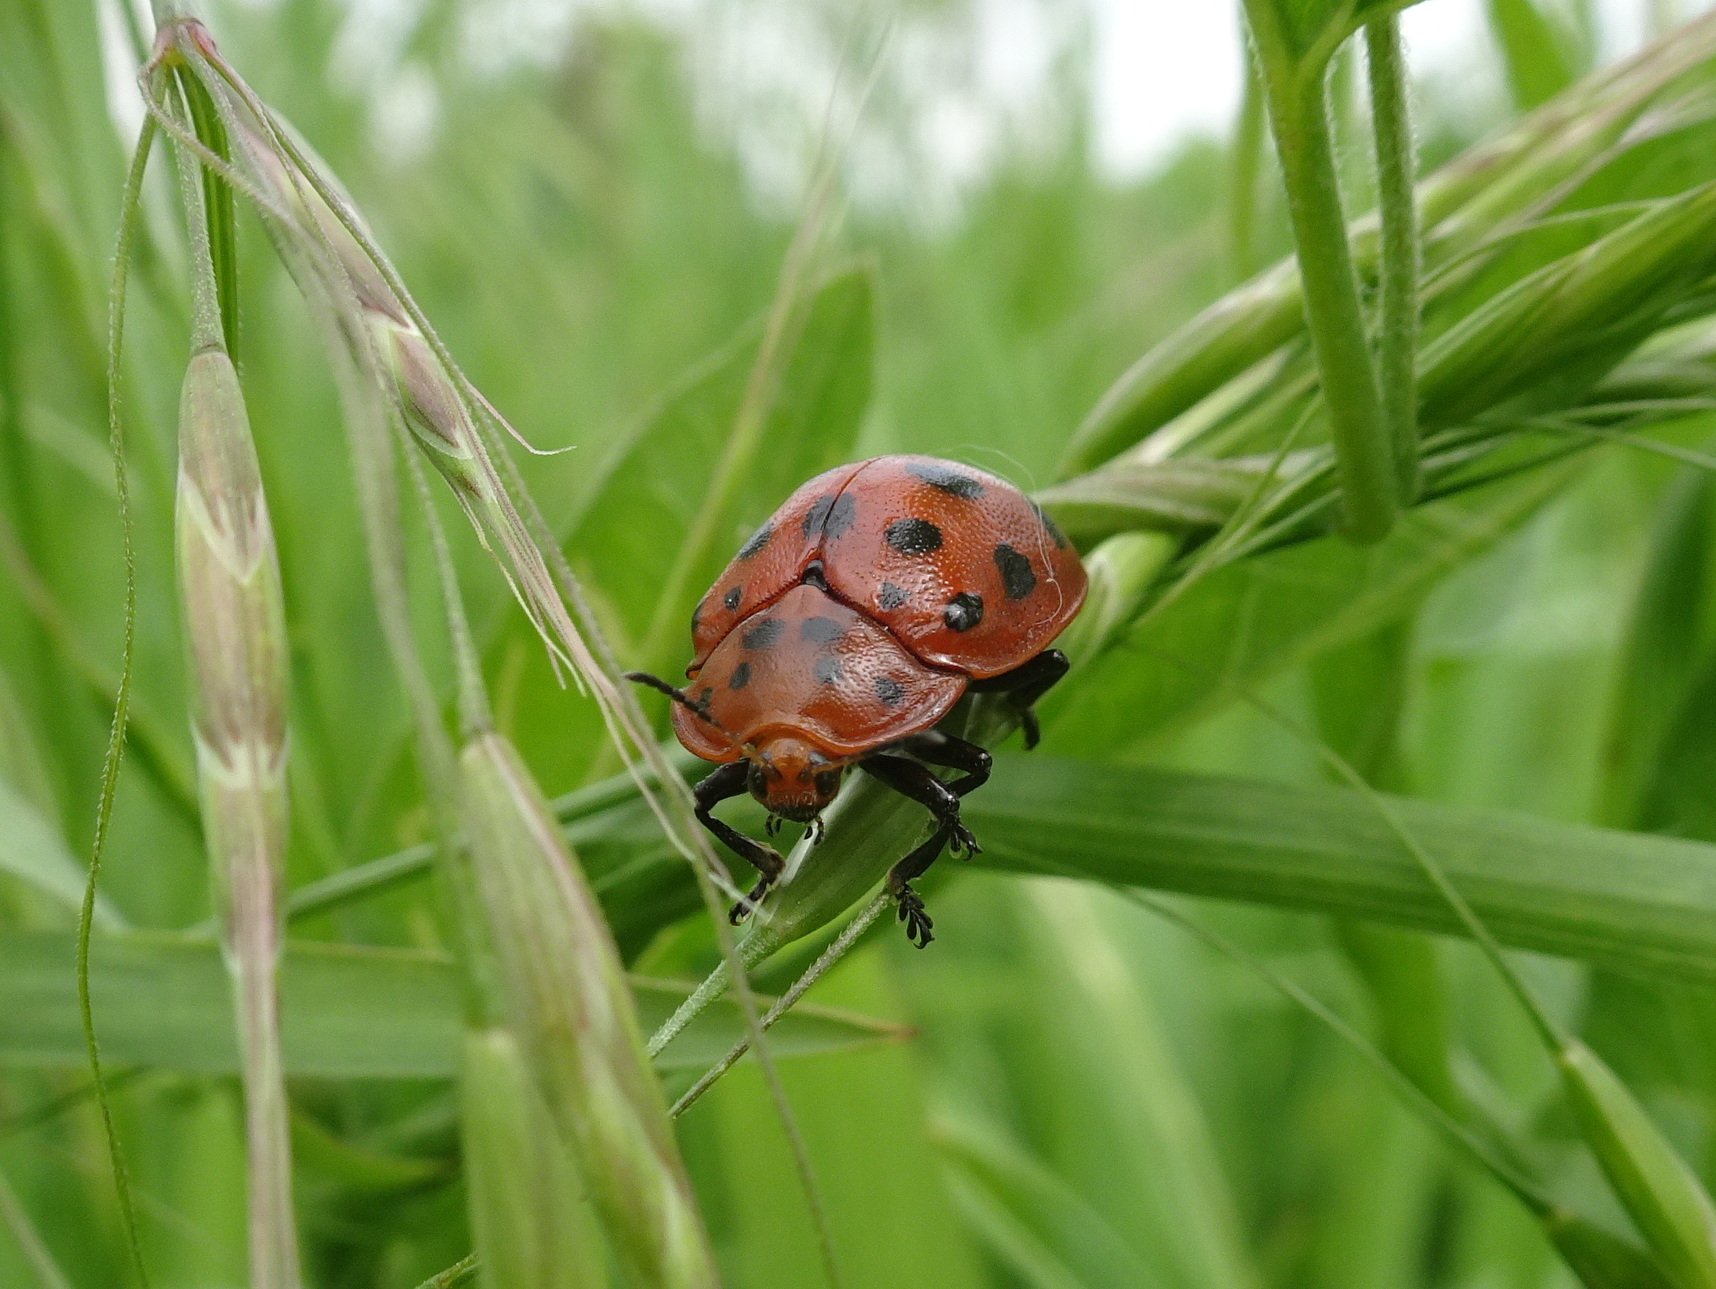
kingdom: Animalia
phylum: Arthropoda
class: Insecta
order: Coleoptera
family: Chrysomelidae
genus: Chelymorpha
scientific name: Chelymorpha cassidea
